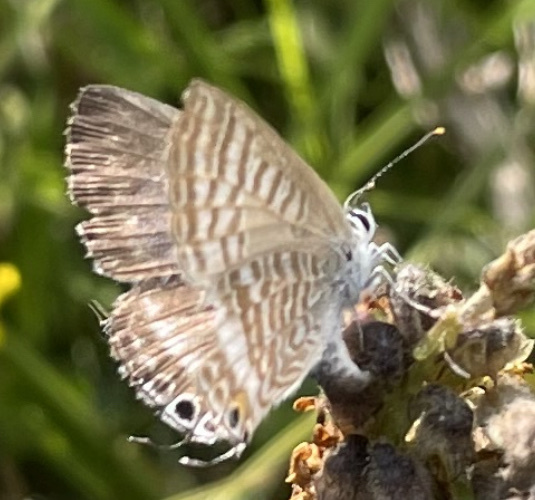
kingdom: Animalia
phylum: Arthropoda
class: Insecta
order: Lepidoptera
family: Lycaenidae
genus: Lampides
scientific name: Lampides boeticus
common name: Long-tailed blue
